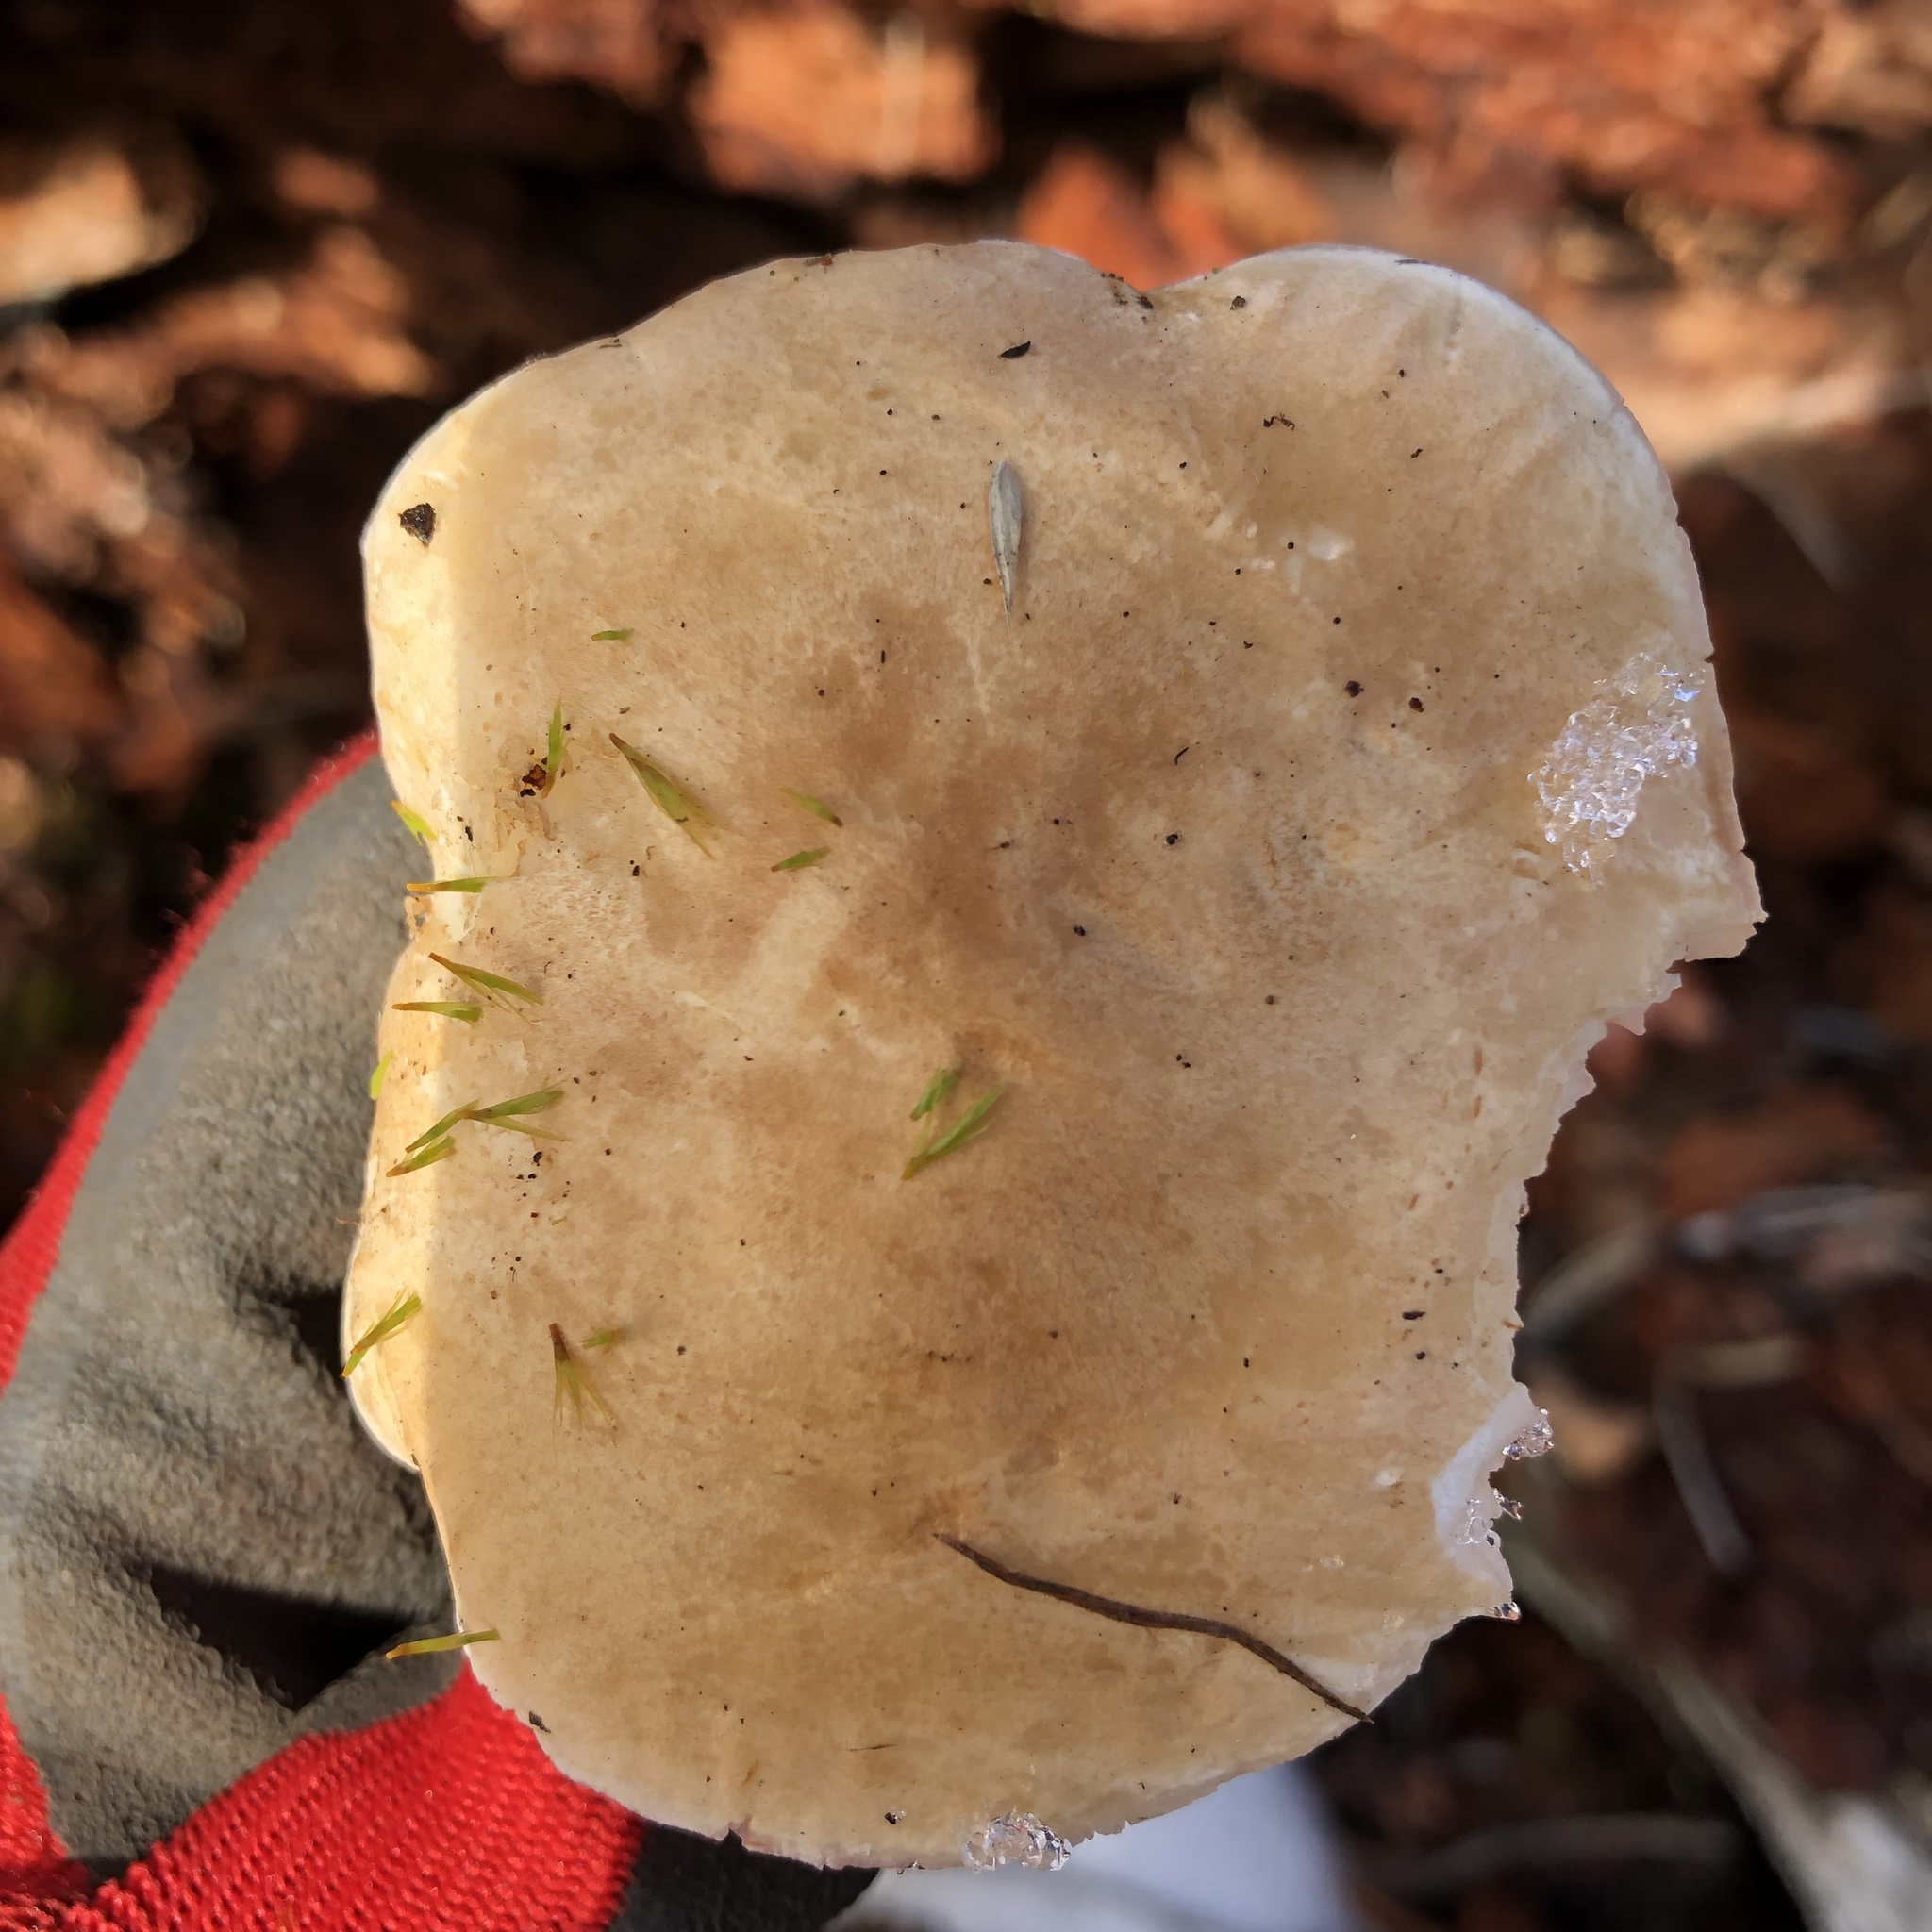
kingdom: Fungi
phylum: Basidiomycota
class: Agaricomycetes
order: Agaricales
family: Tricholomataceae
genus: Leucopaxillus
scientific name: Leucopaxillus gentianeus
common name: Bitter funnel
